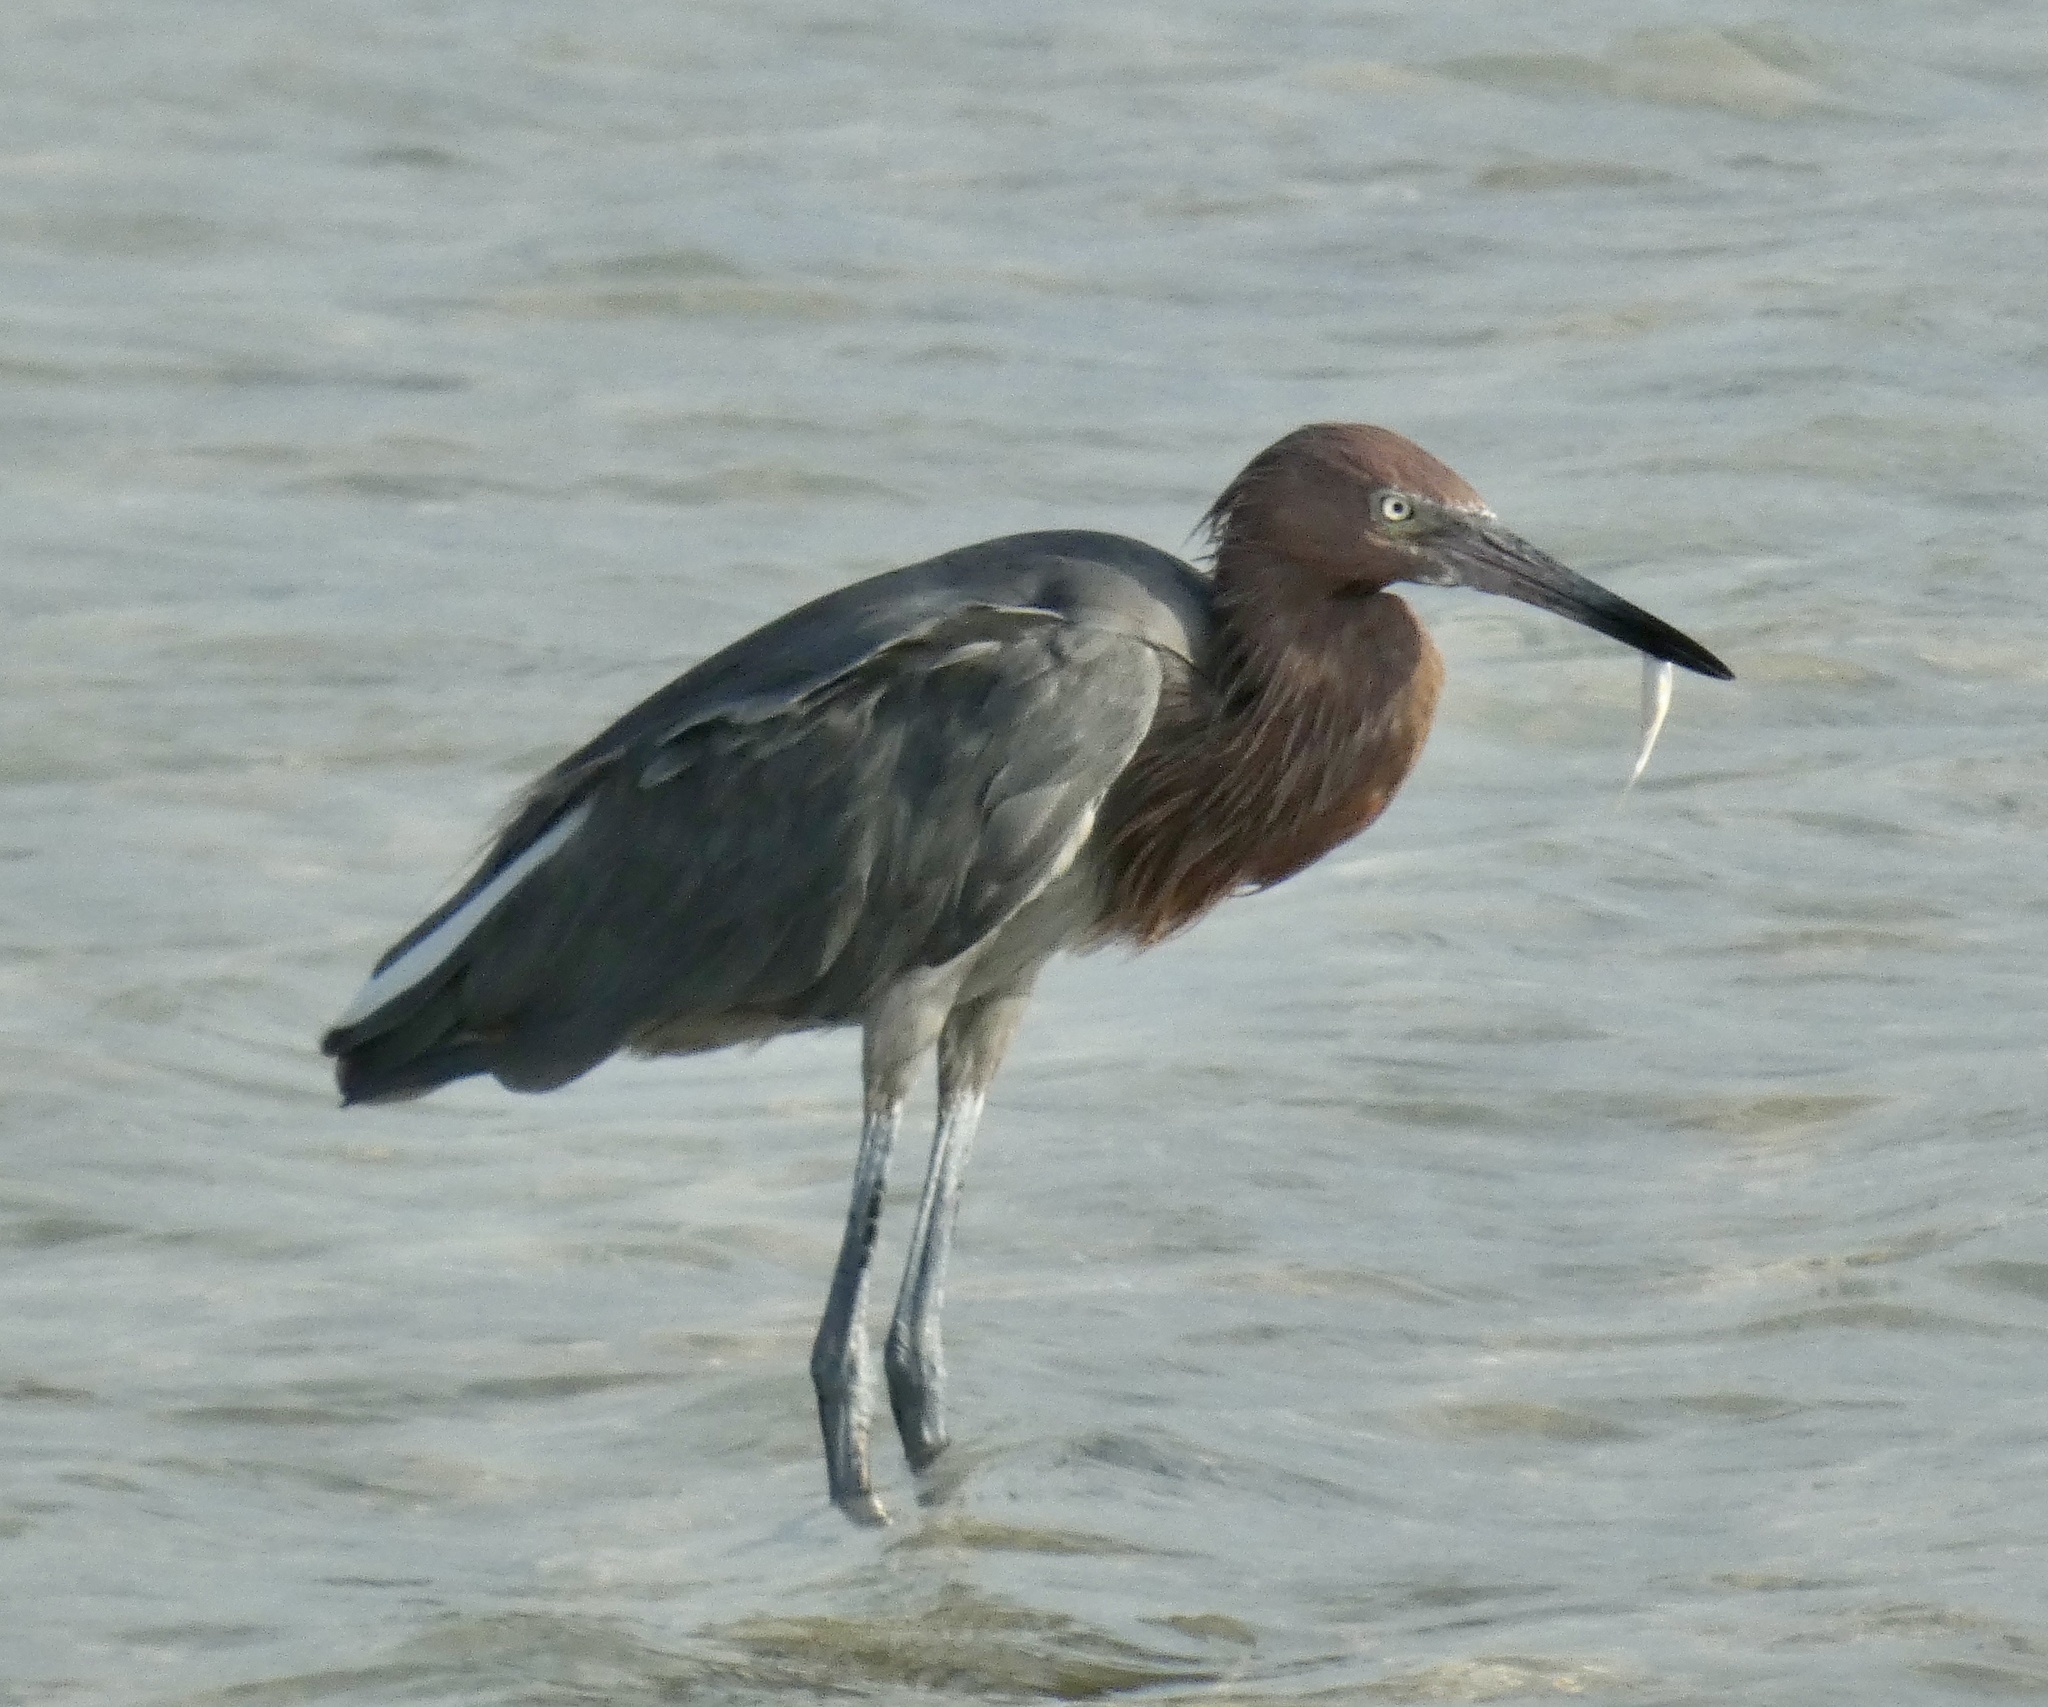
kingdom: Animalia
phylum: Chordata
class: Aves
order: Pelecaniformes
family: Ardeidae
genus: Egretta
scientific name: Egretta rufescens
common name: Reddish egret
